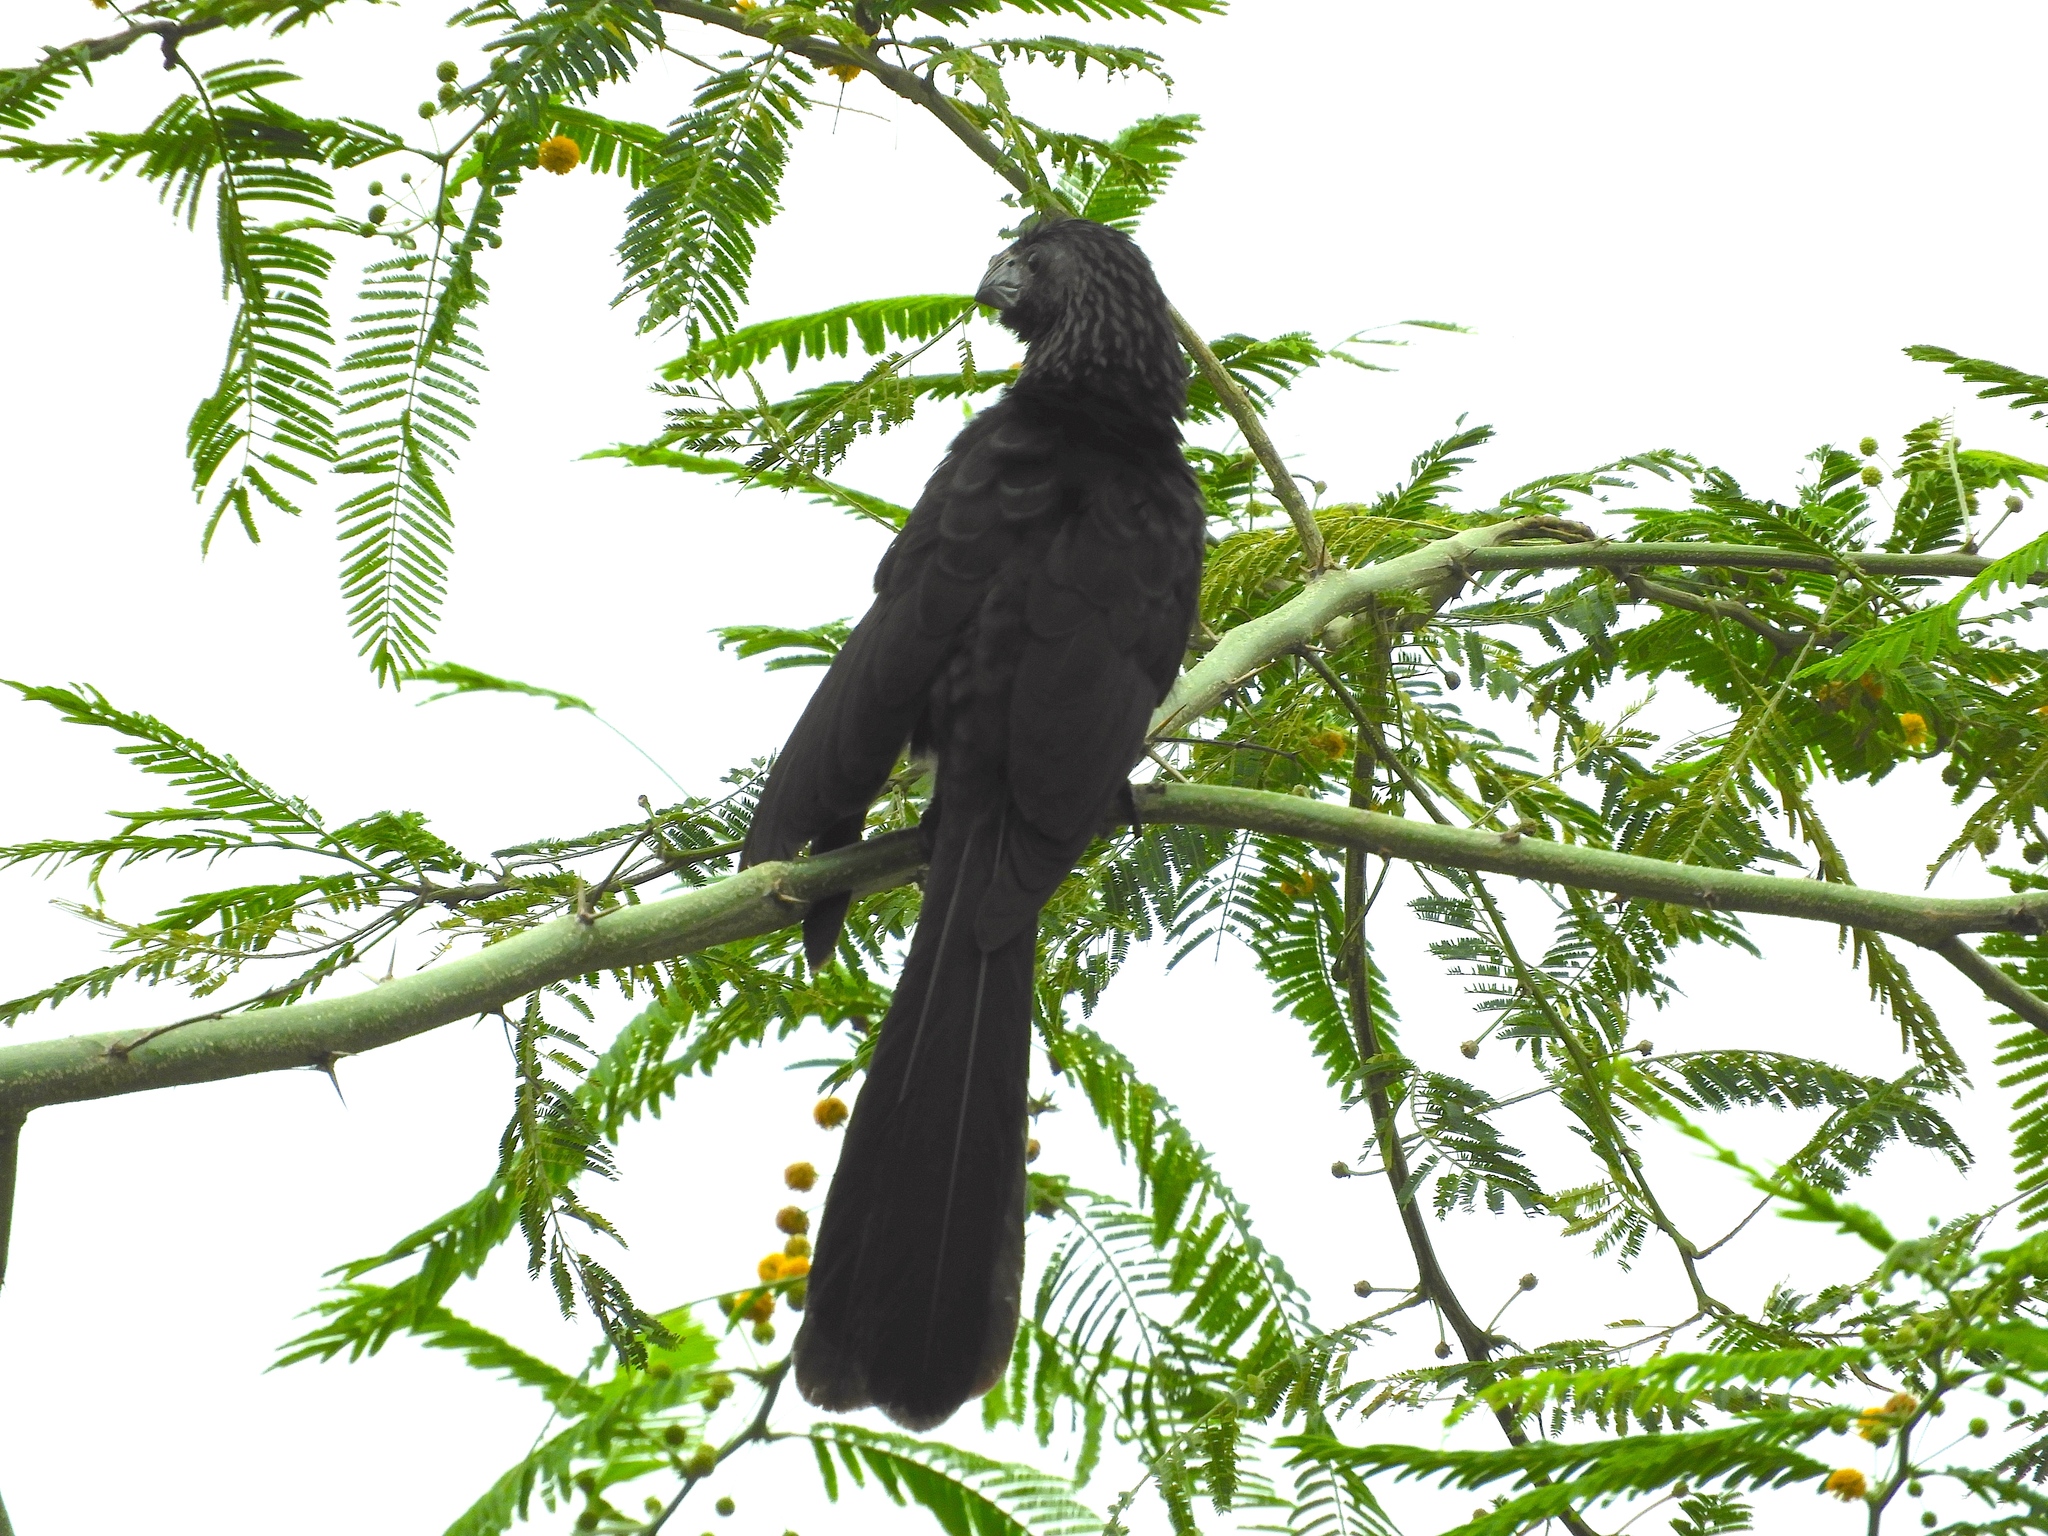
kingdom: Animalia
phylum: Chordata
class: Aves
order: Cuculiformes
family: Cuculidae
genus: Crotophaga
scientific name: Crotophaga sulcirostris
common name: Groove-billed ani
